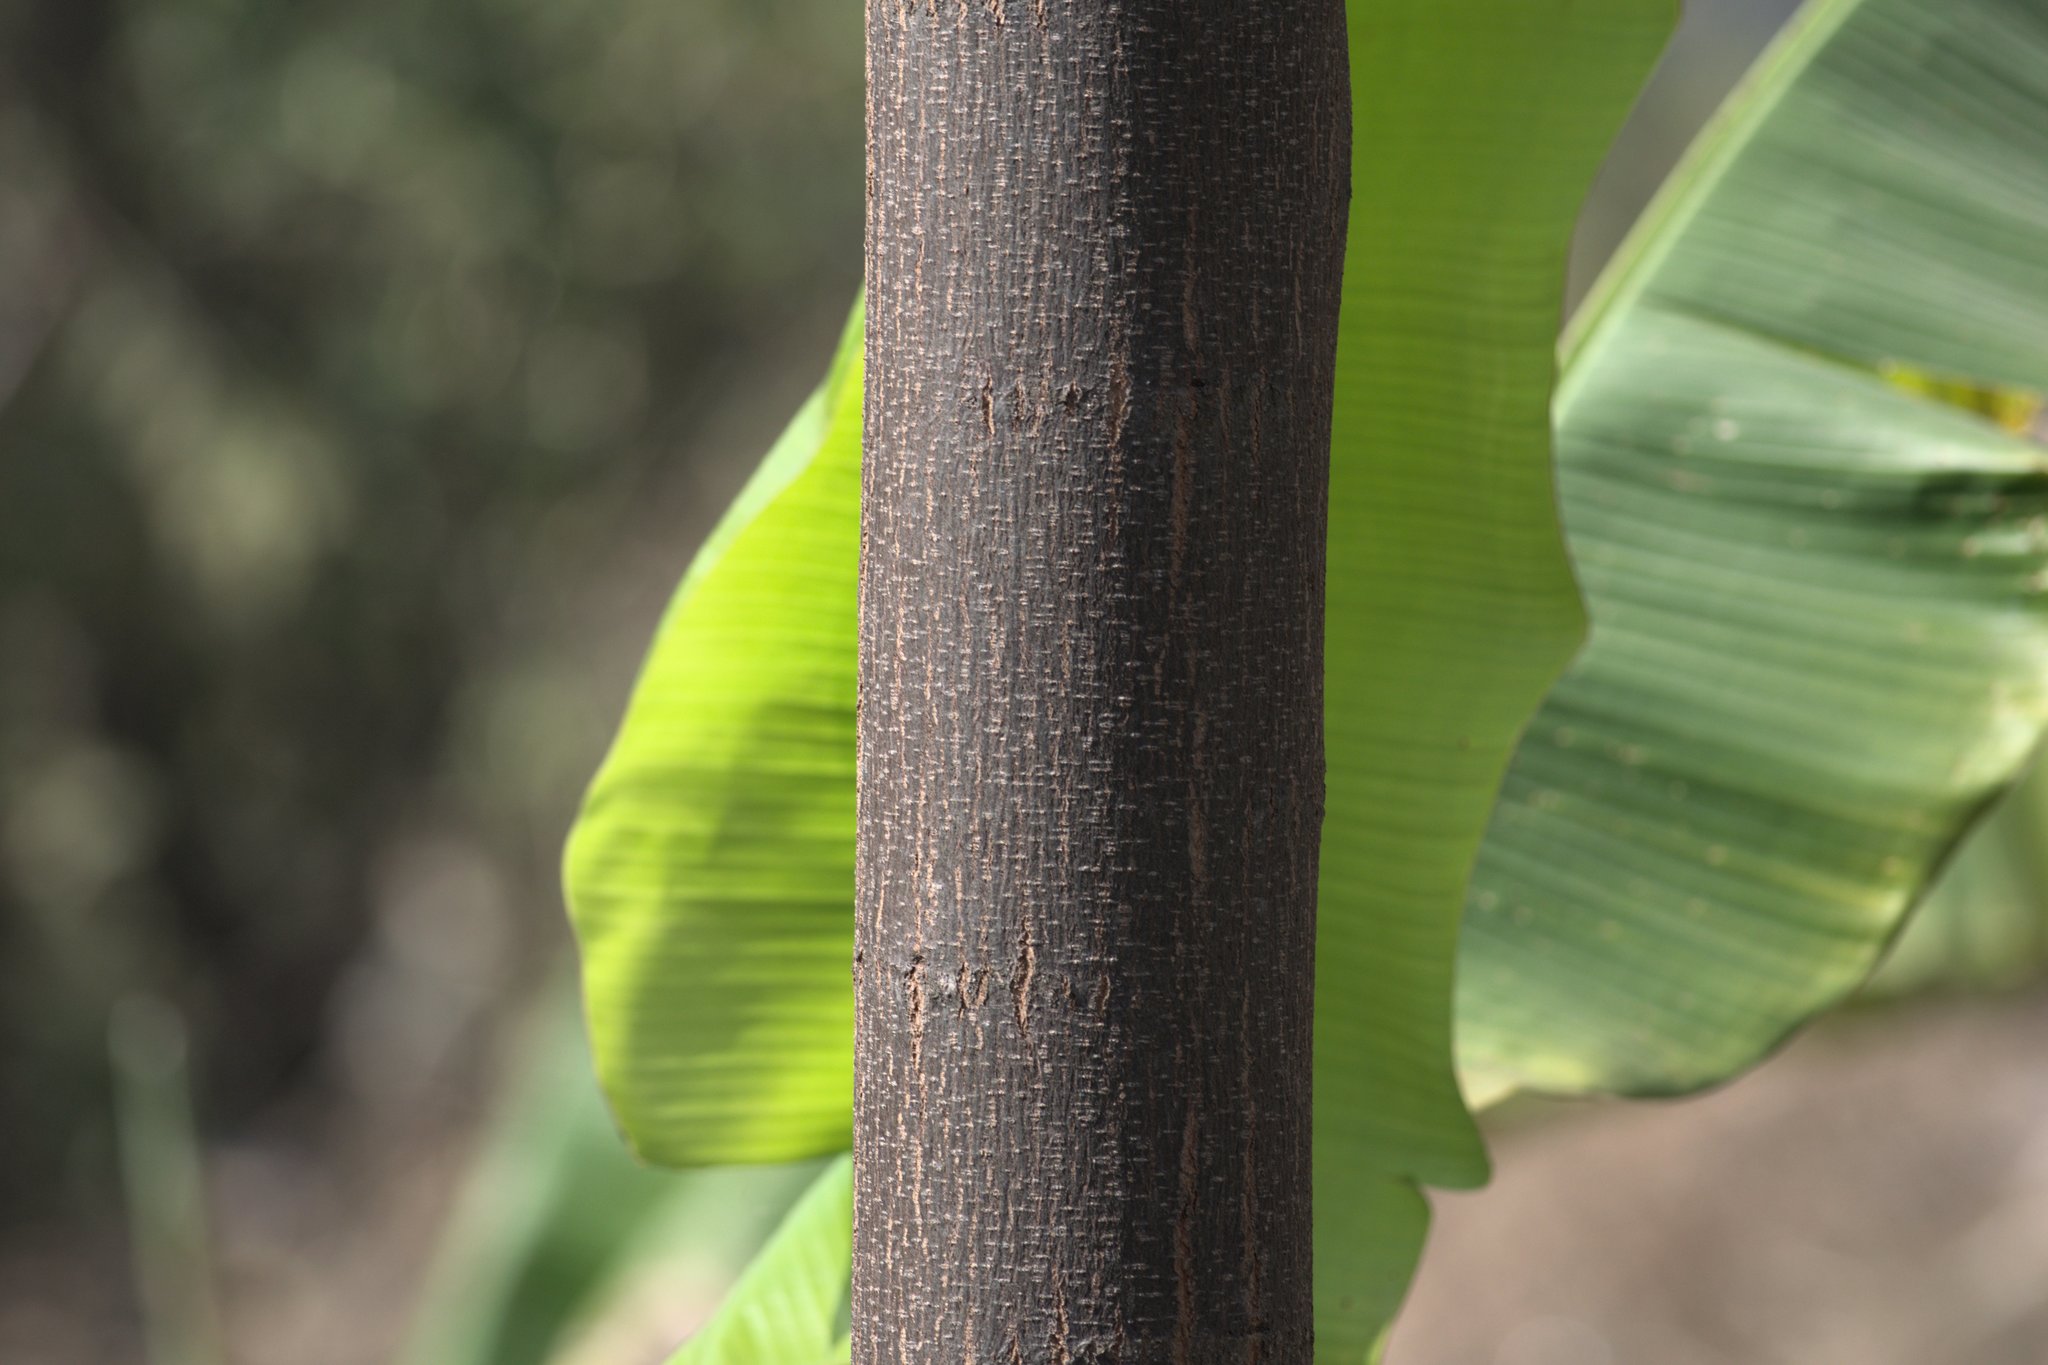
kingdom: Plantae
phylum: Tracheophyta
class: Magnoliopsida
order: Sapindales
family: Meliaceae
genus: Melia
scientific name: Melia azedarach
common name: Chinaberrytree
